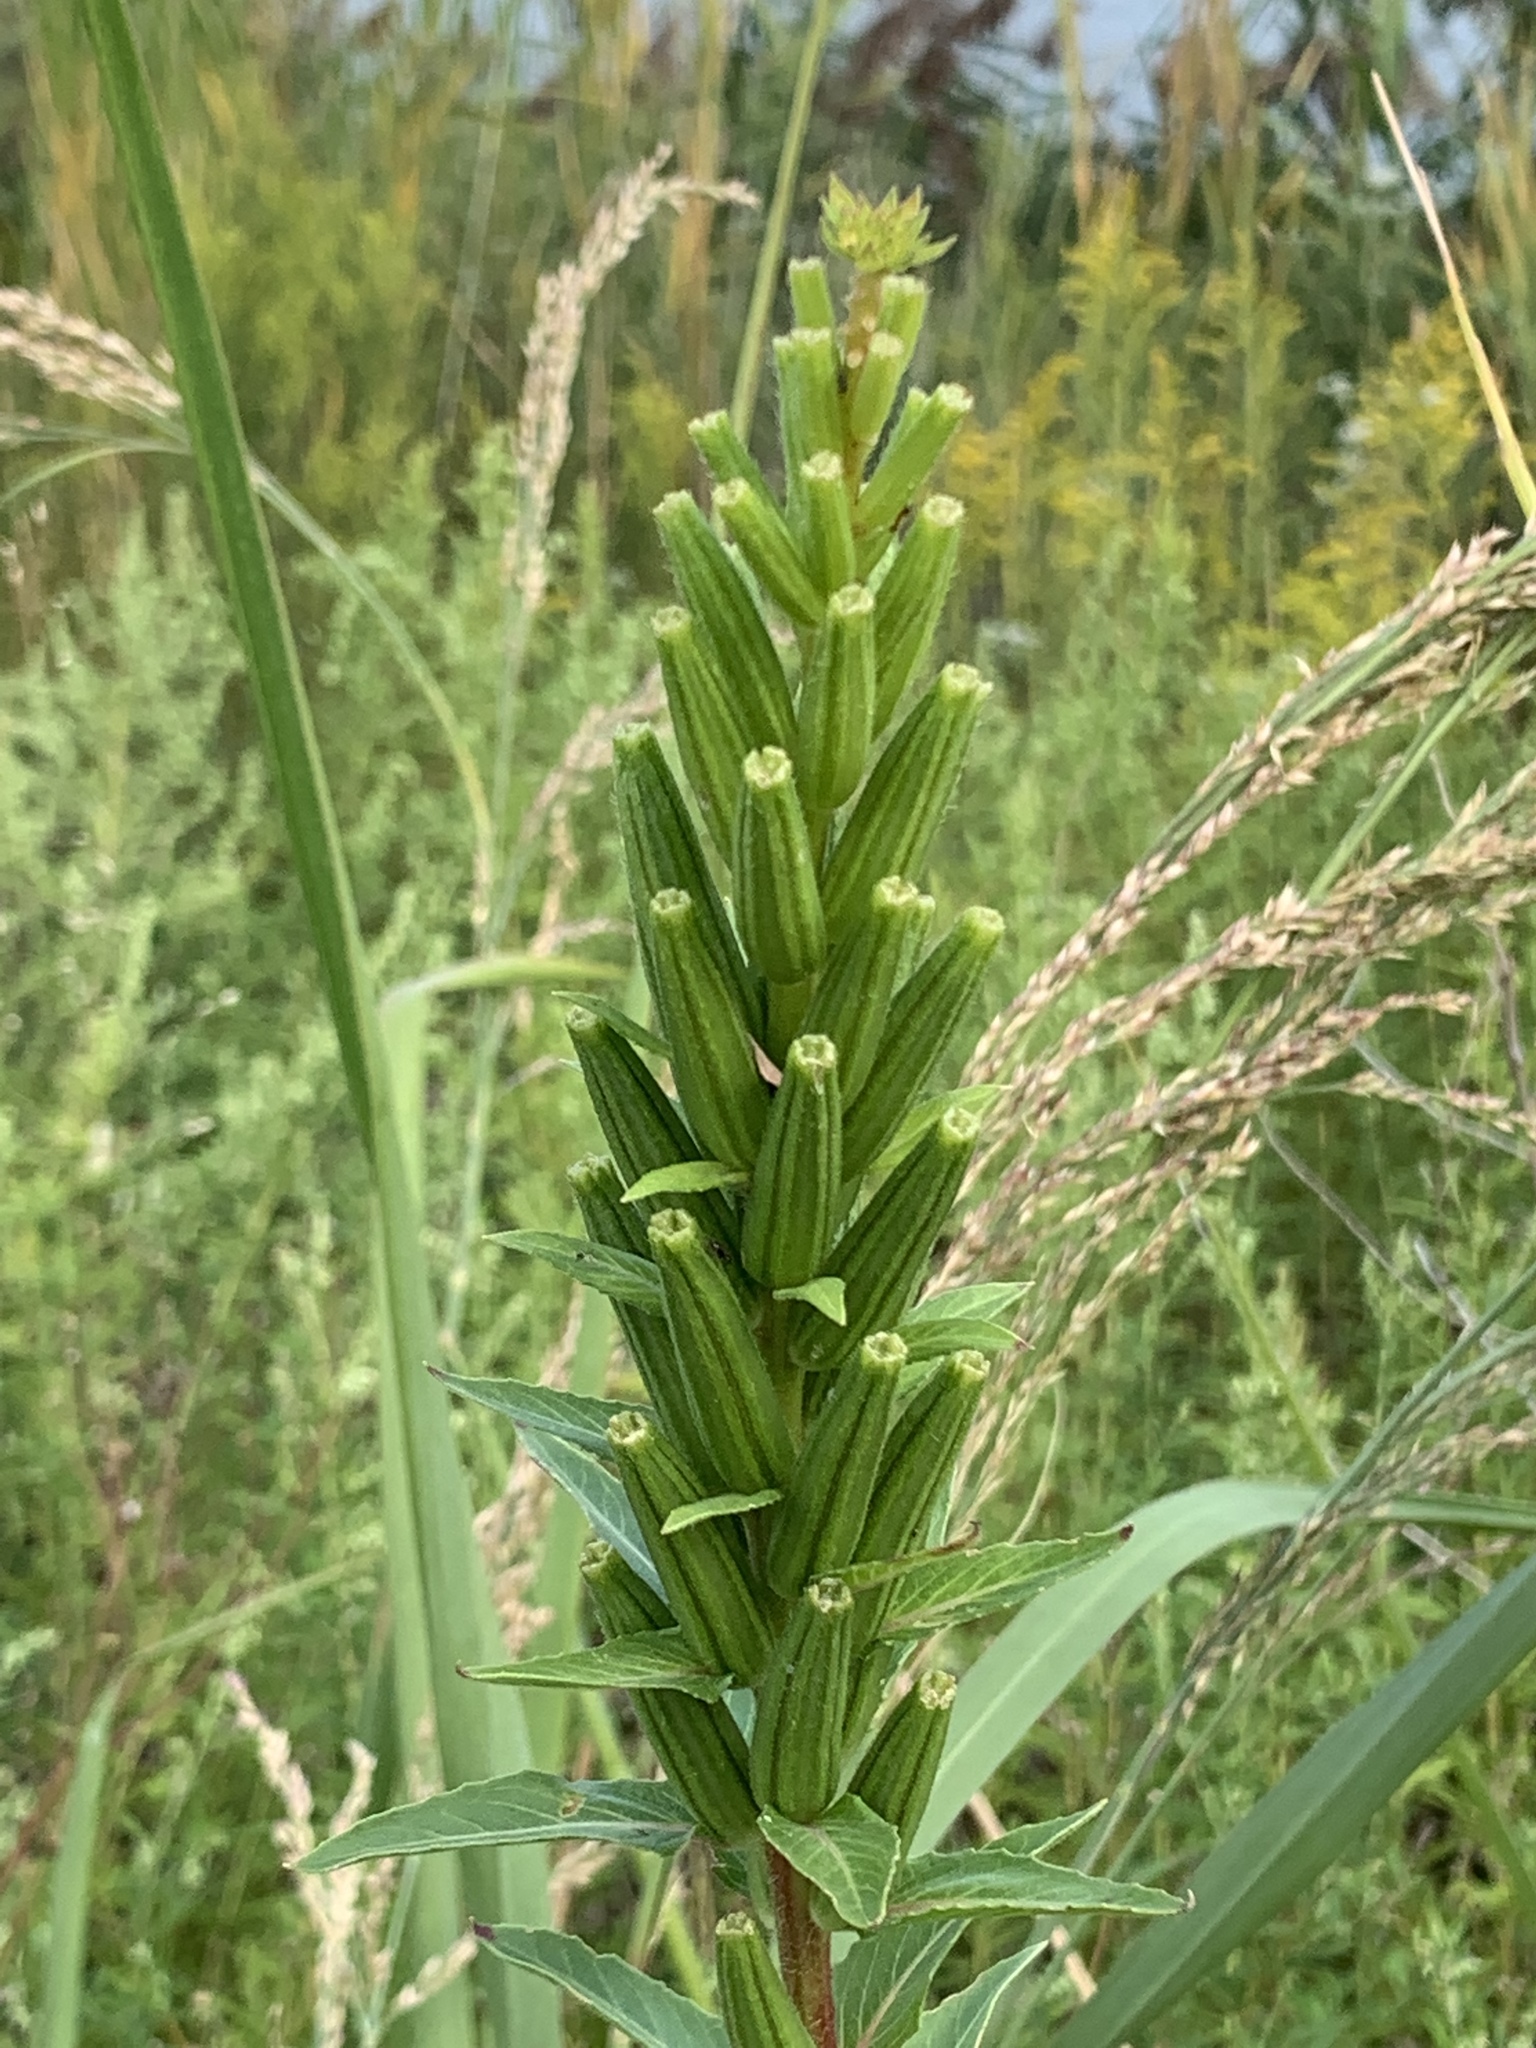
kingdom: Plantae
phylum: Tracheophyta
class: Magnoliopsida
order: Myrtales
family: Onagraceae
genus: Oenothera
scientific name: Oenothera biennis
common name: Common evening-primrose
